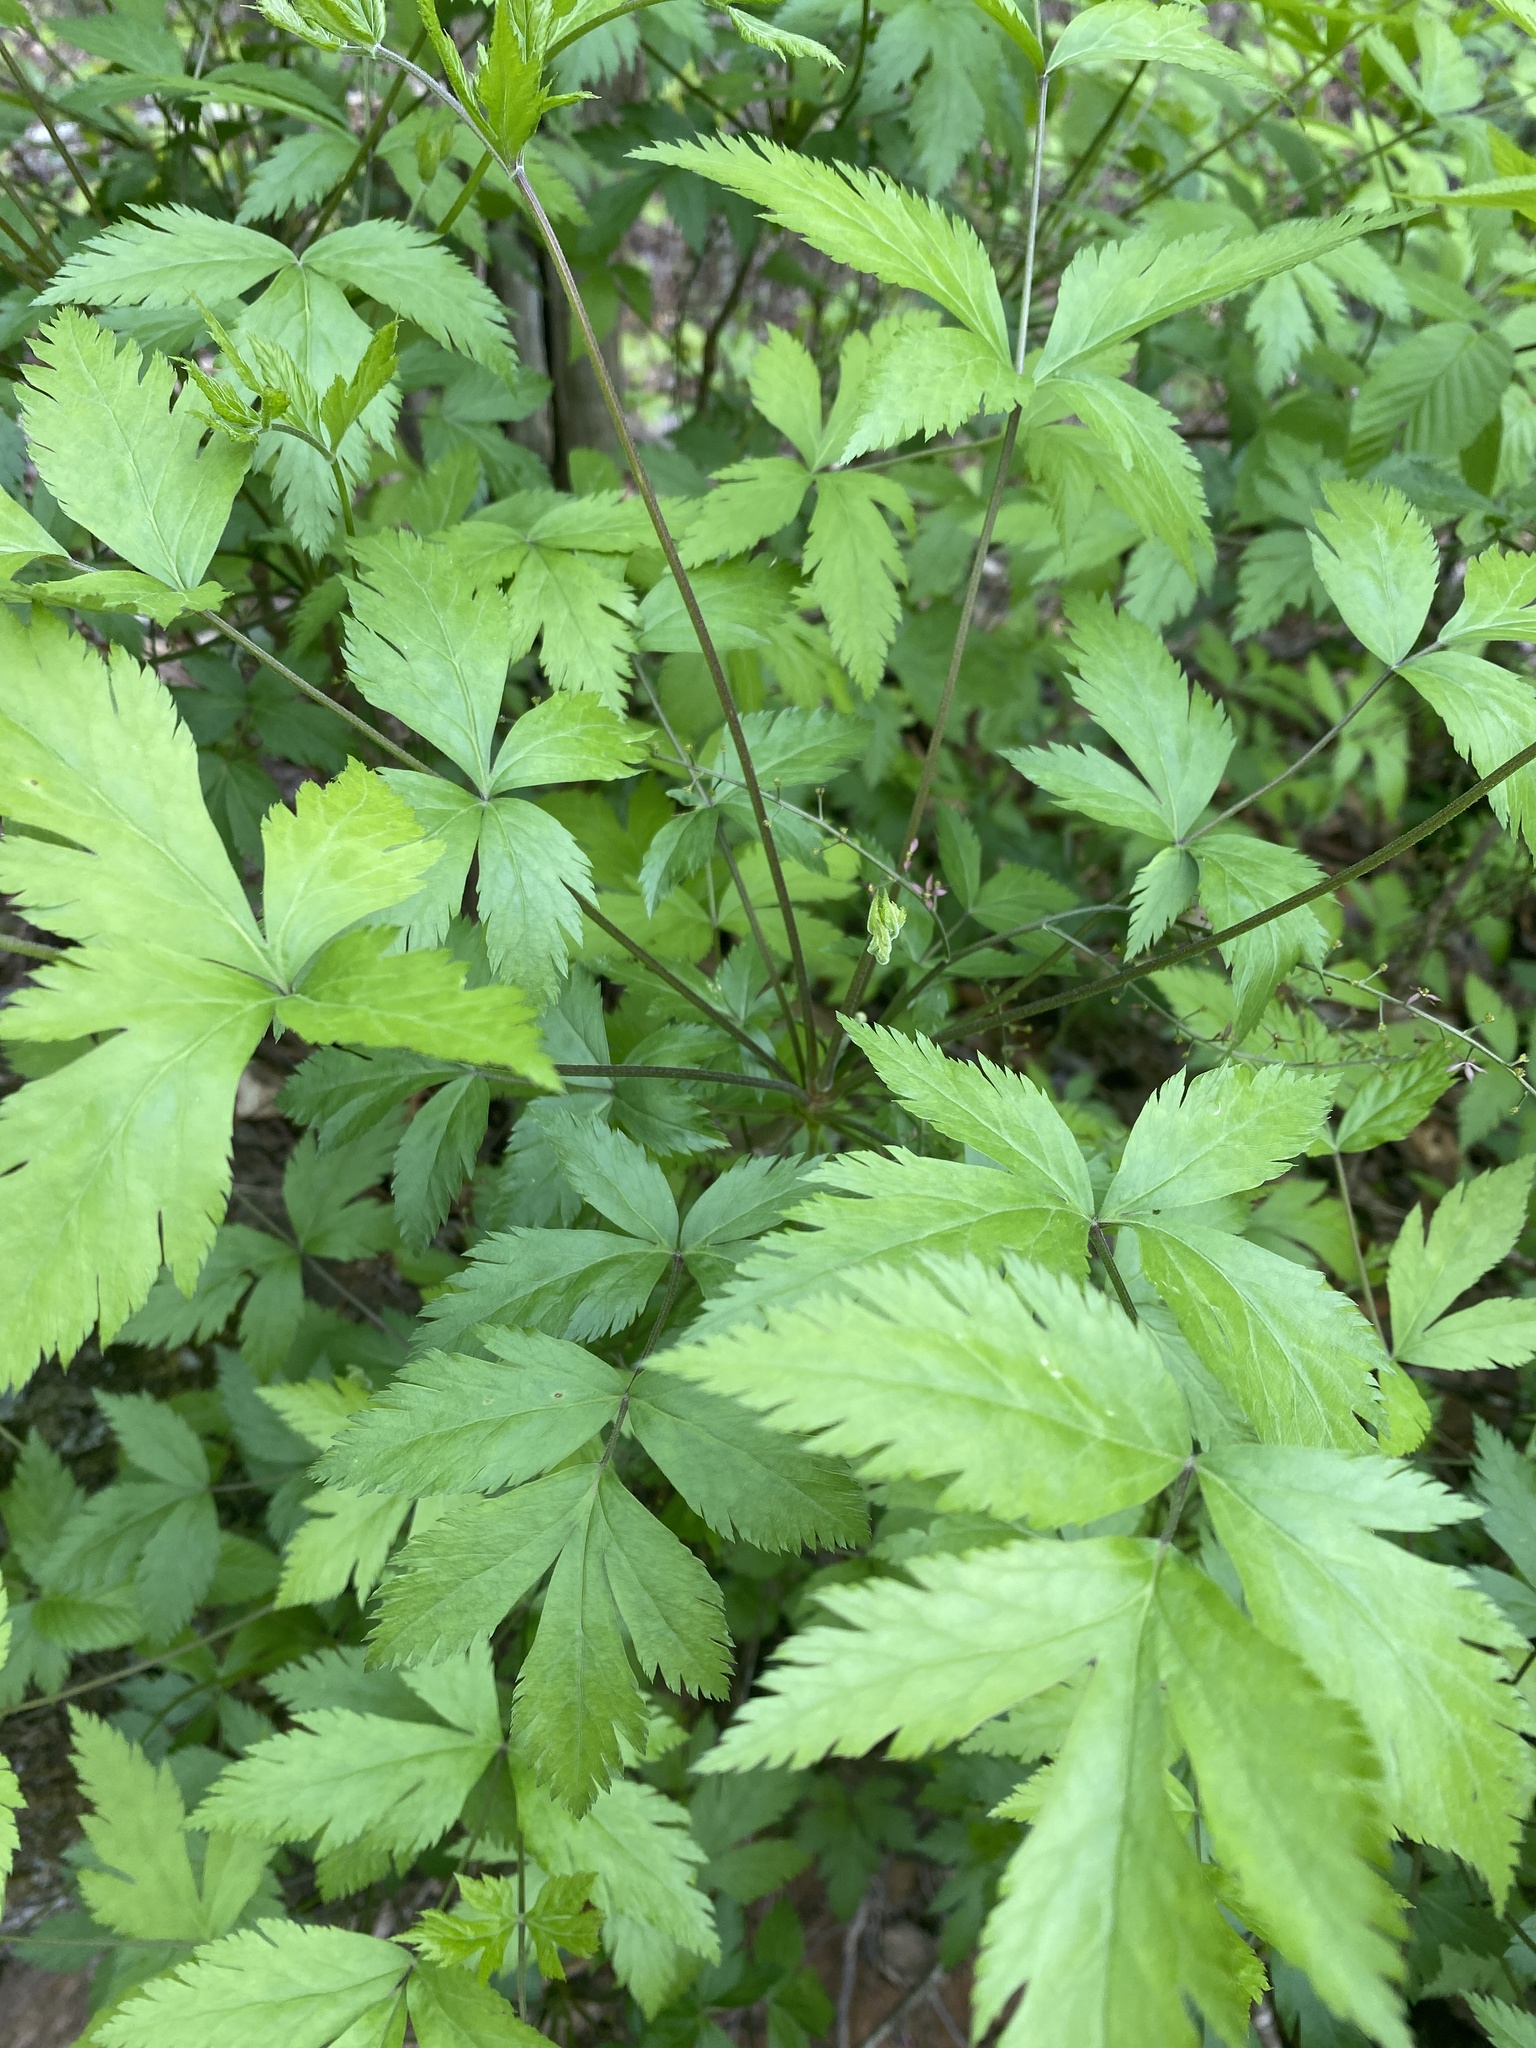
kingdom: Plantae
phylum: Tracheophyta
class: Magnoliopsida
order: Ranunculales
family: Ranunculaceae
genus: Xanthorhiza
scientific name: Xanthorhiza simplicissima
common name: Yellowroot
